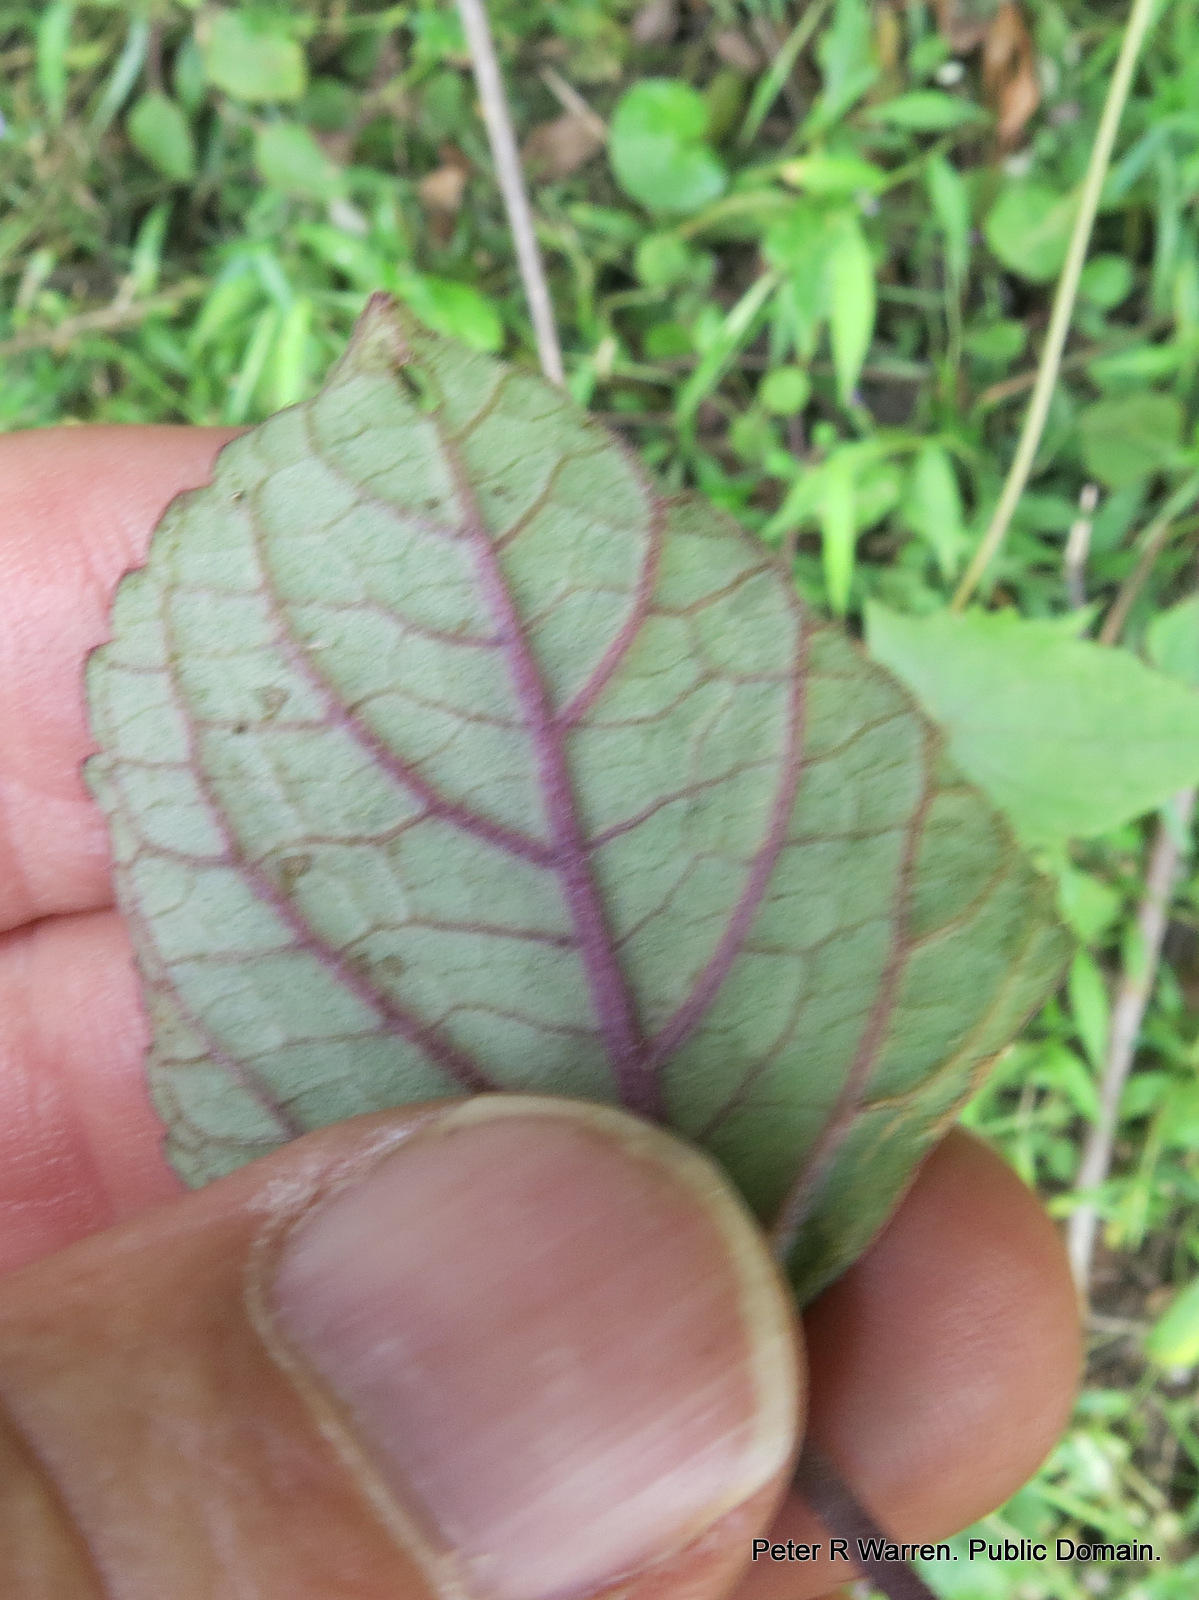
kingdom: Plantae
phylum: Tracheophyta
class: Magnoliopsida
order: Lamiales
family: Lamiaceae
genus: Plectranthus
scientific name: Plectranthus fruticosus
